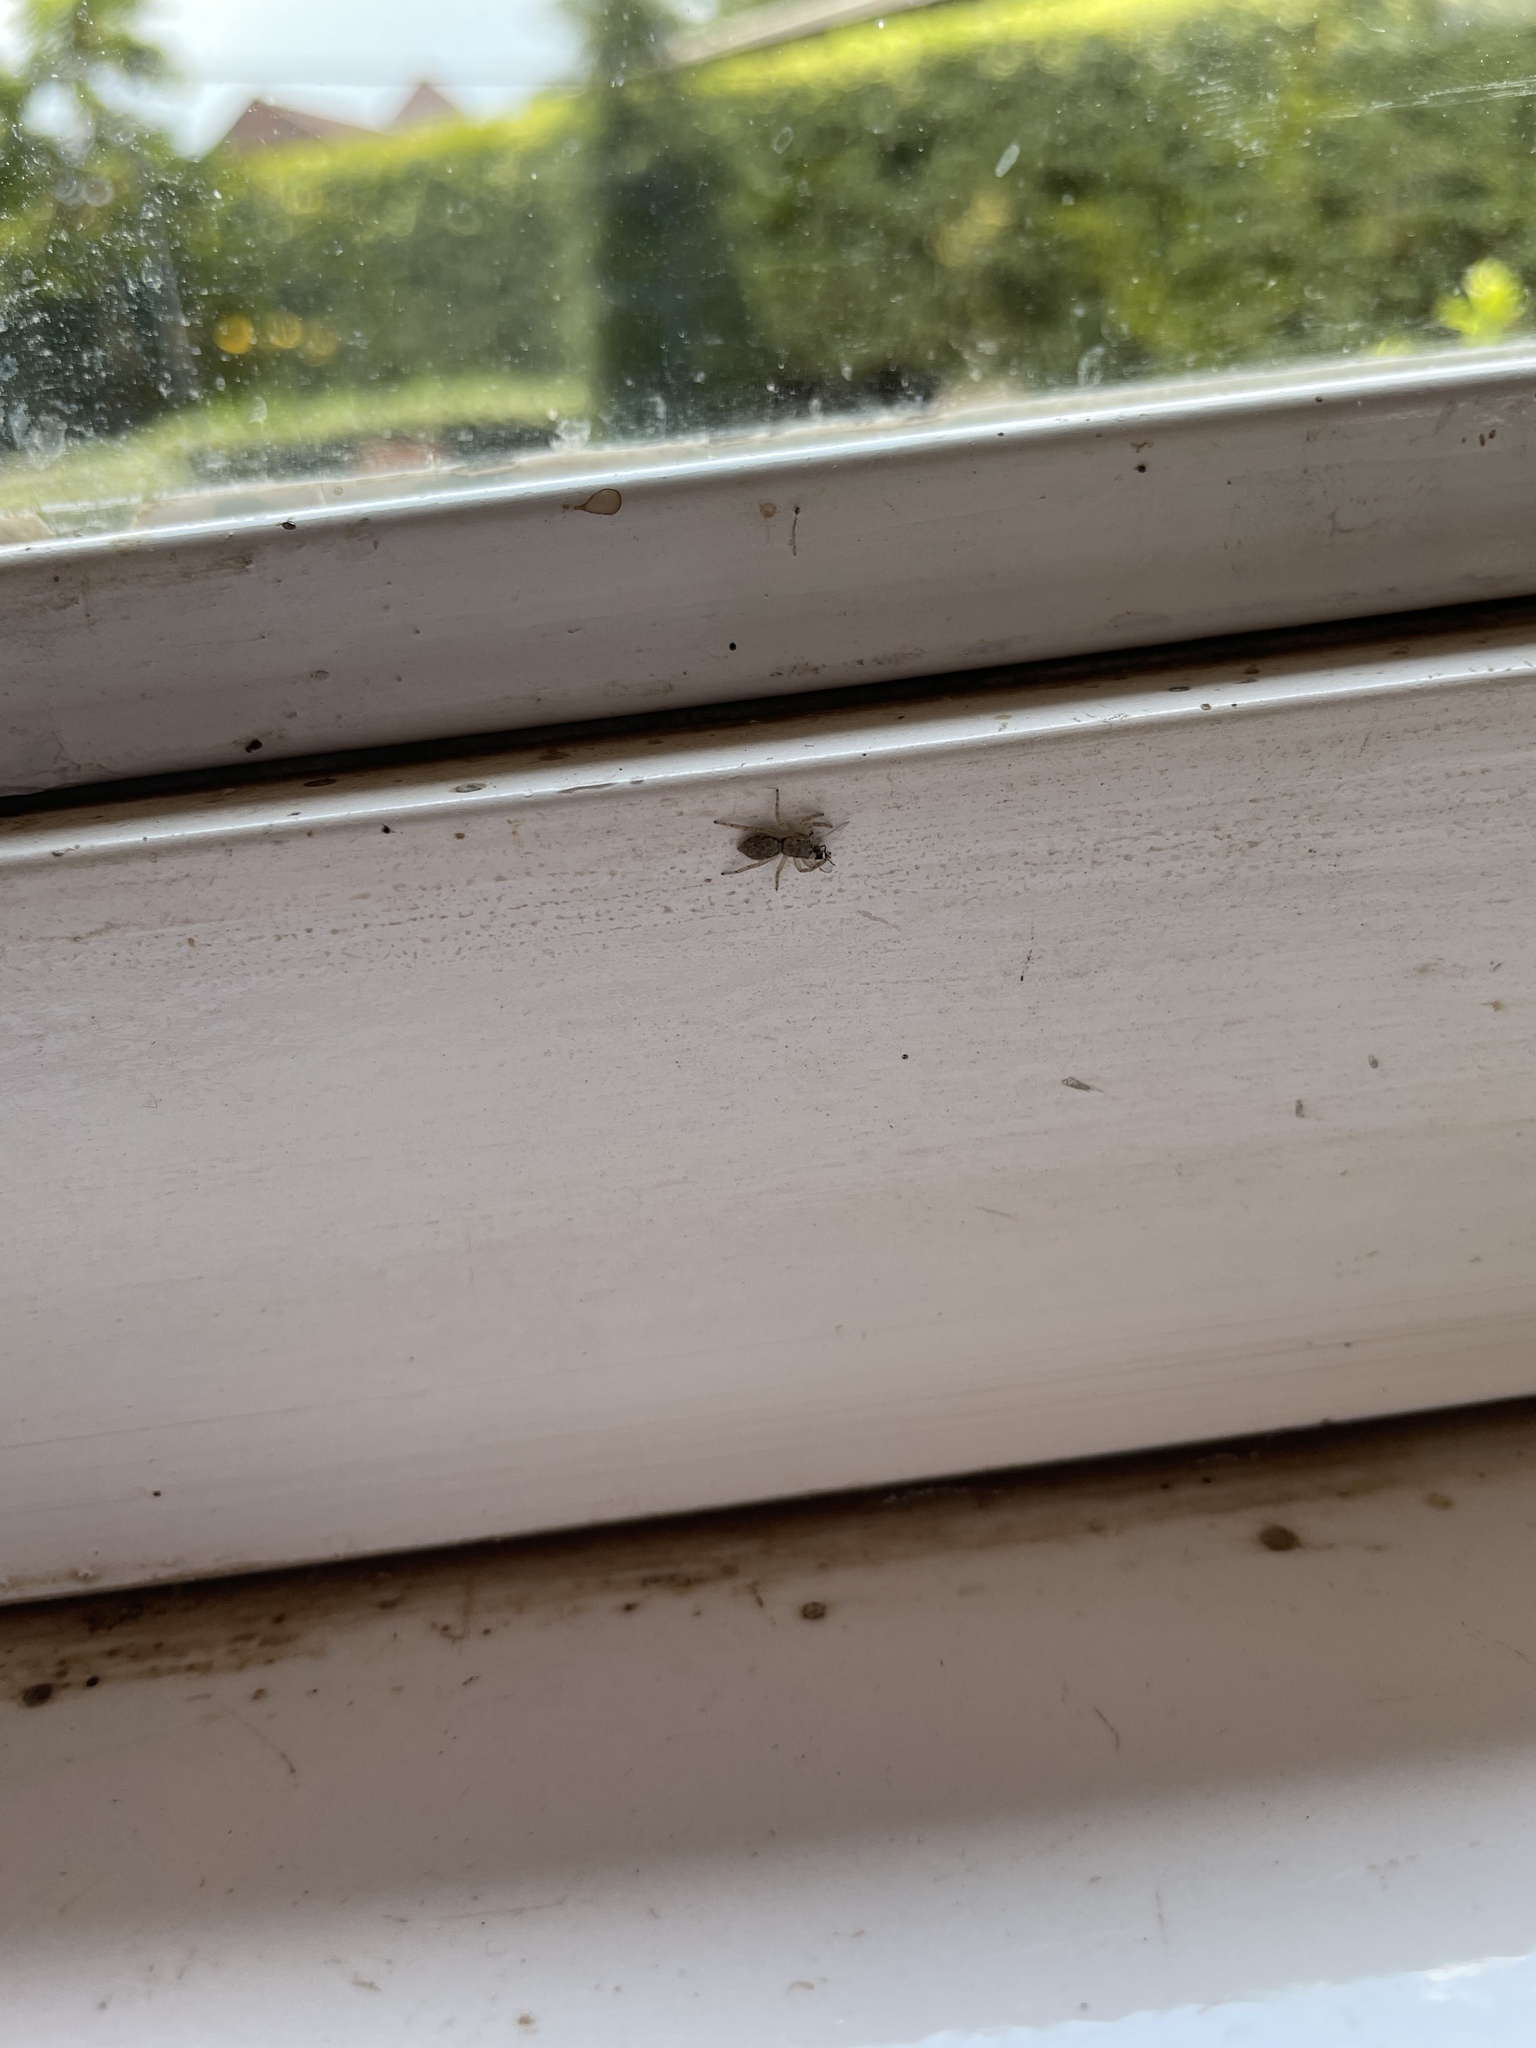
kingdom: Animalia
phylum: Arthropoda
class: Arachnida
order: Araneae
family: Salticidae
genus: Menemerus
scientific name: Menemerus bivittatus
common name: Gray wall jumper
